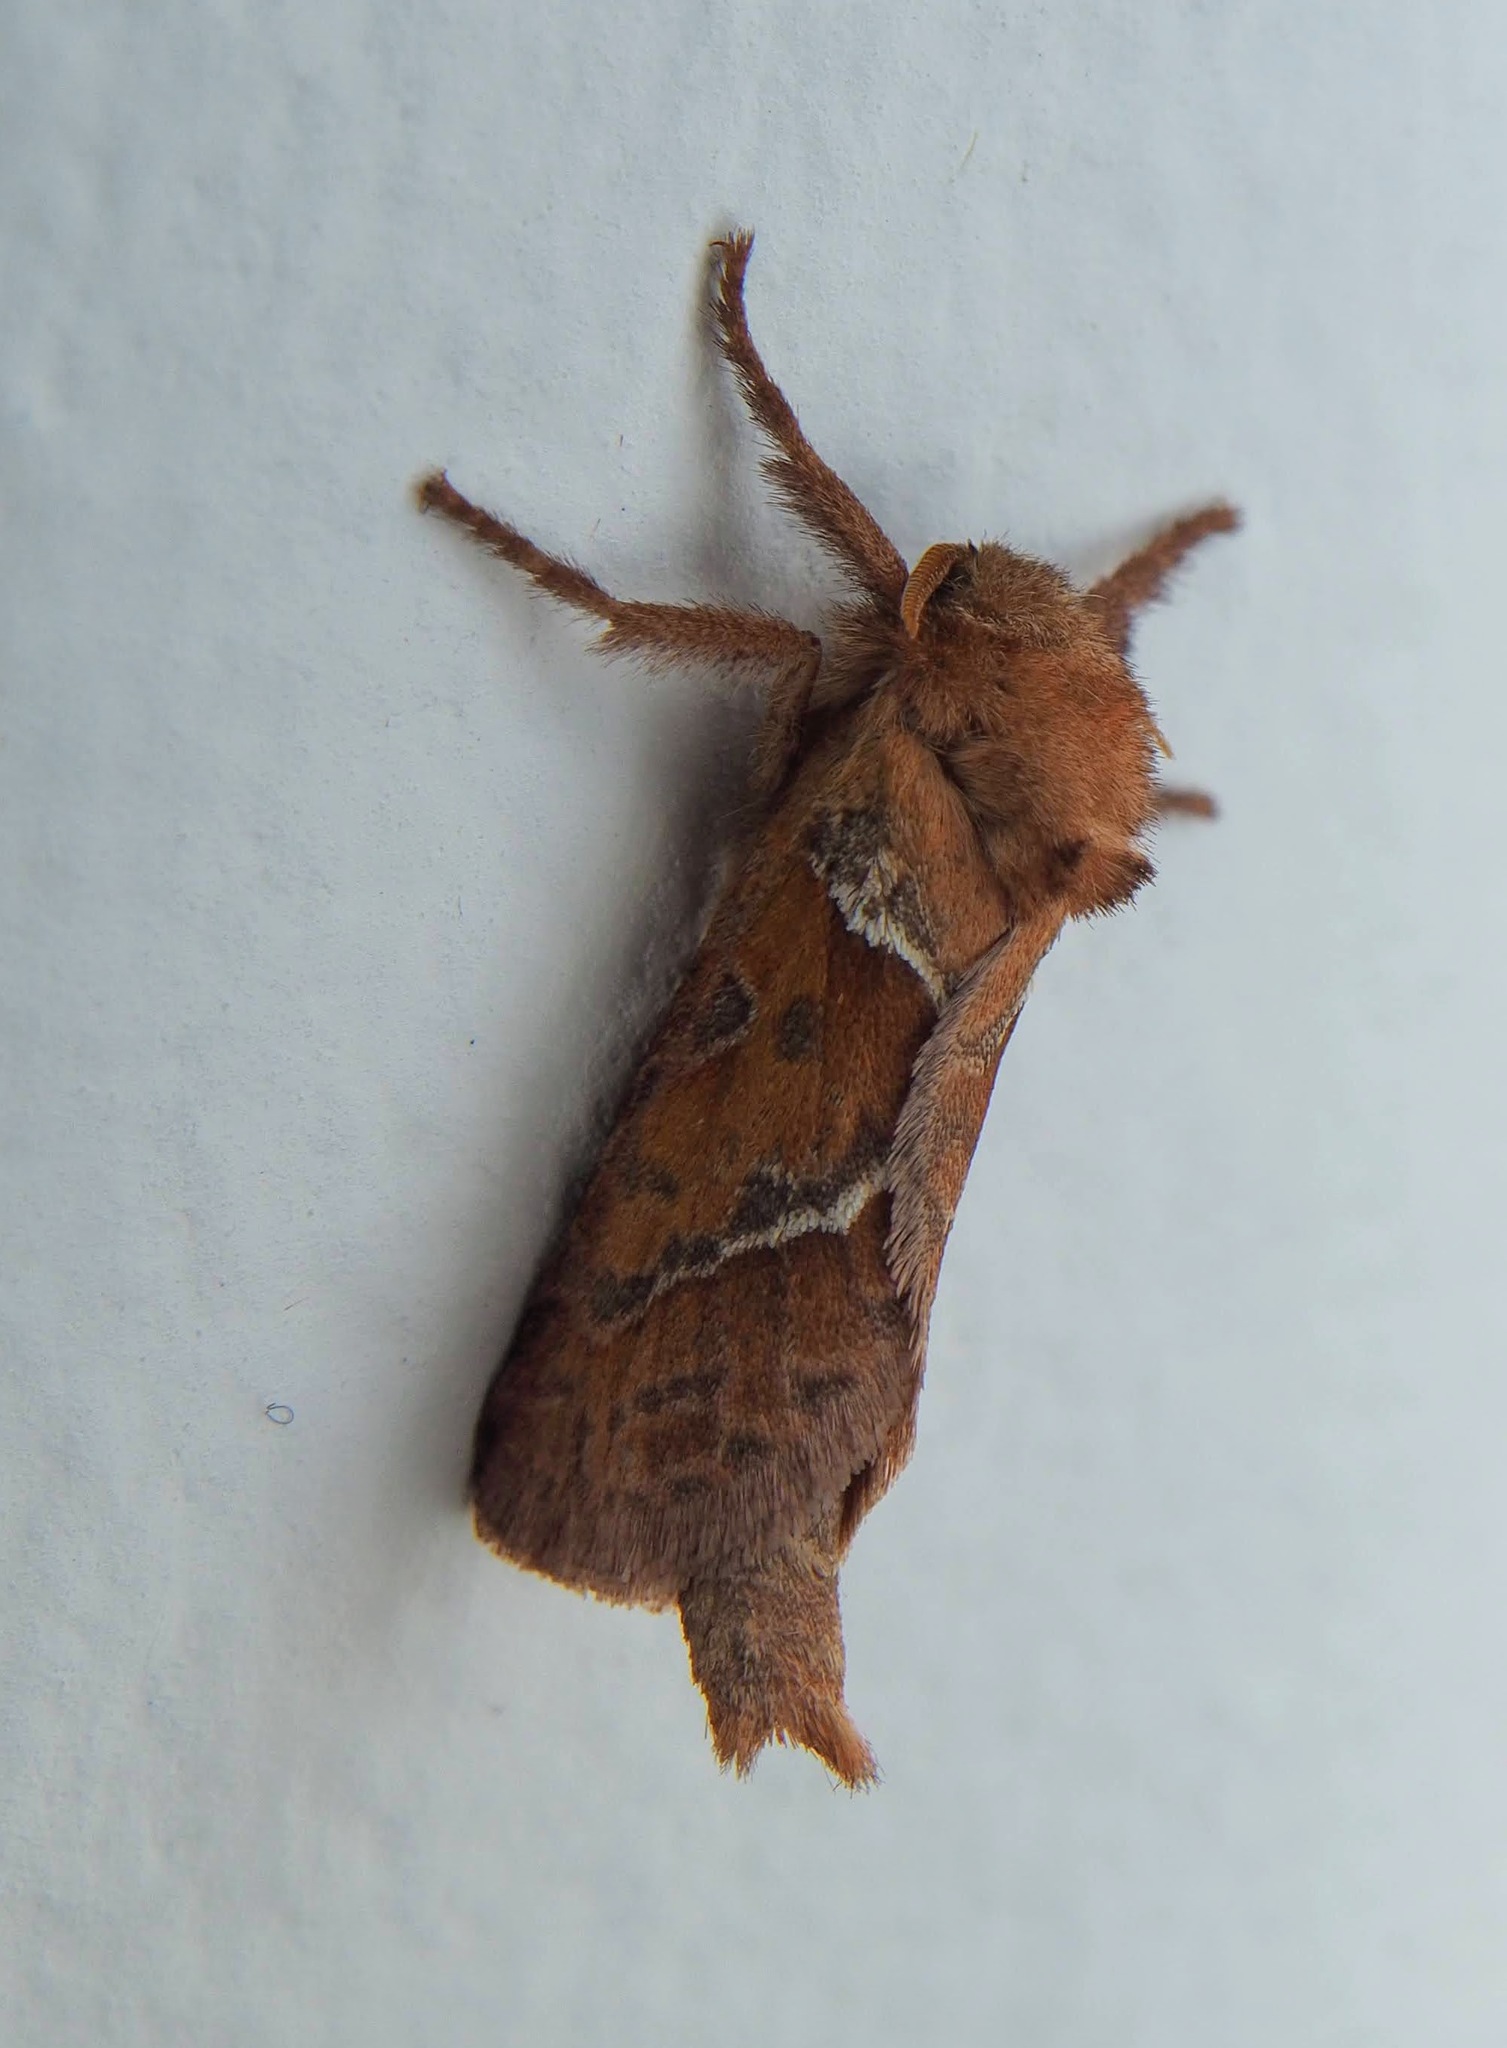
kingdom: Animalia
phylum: Arthropoda
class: Insecta
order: Lepidoptera
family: Hepialidae
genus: Triodia
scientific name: Triodia sylvina
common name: Orange swift
